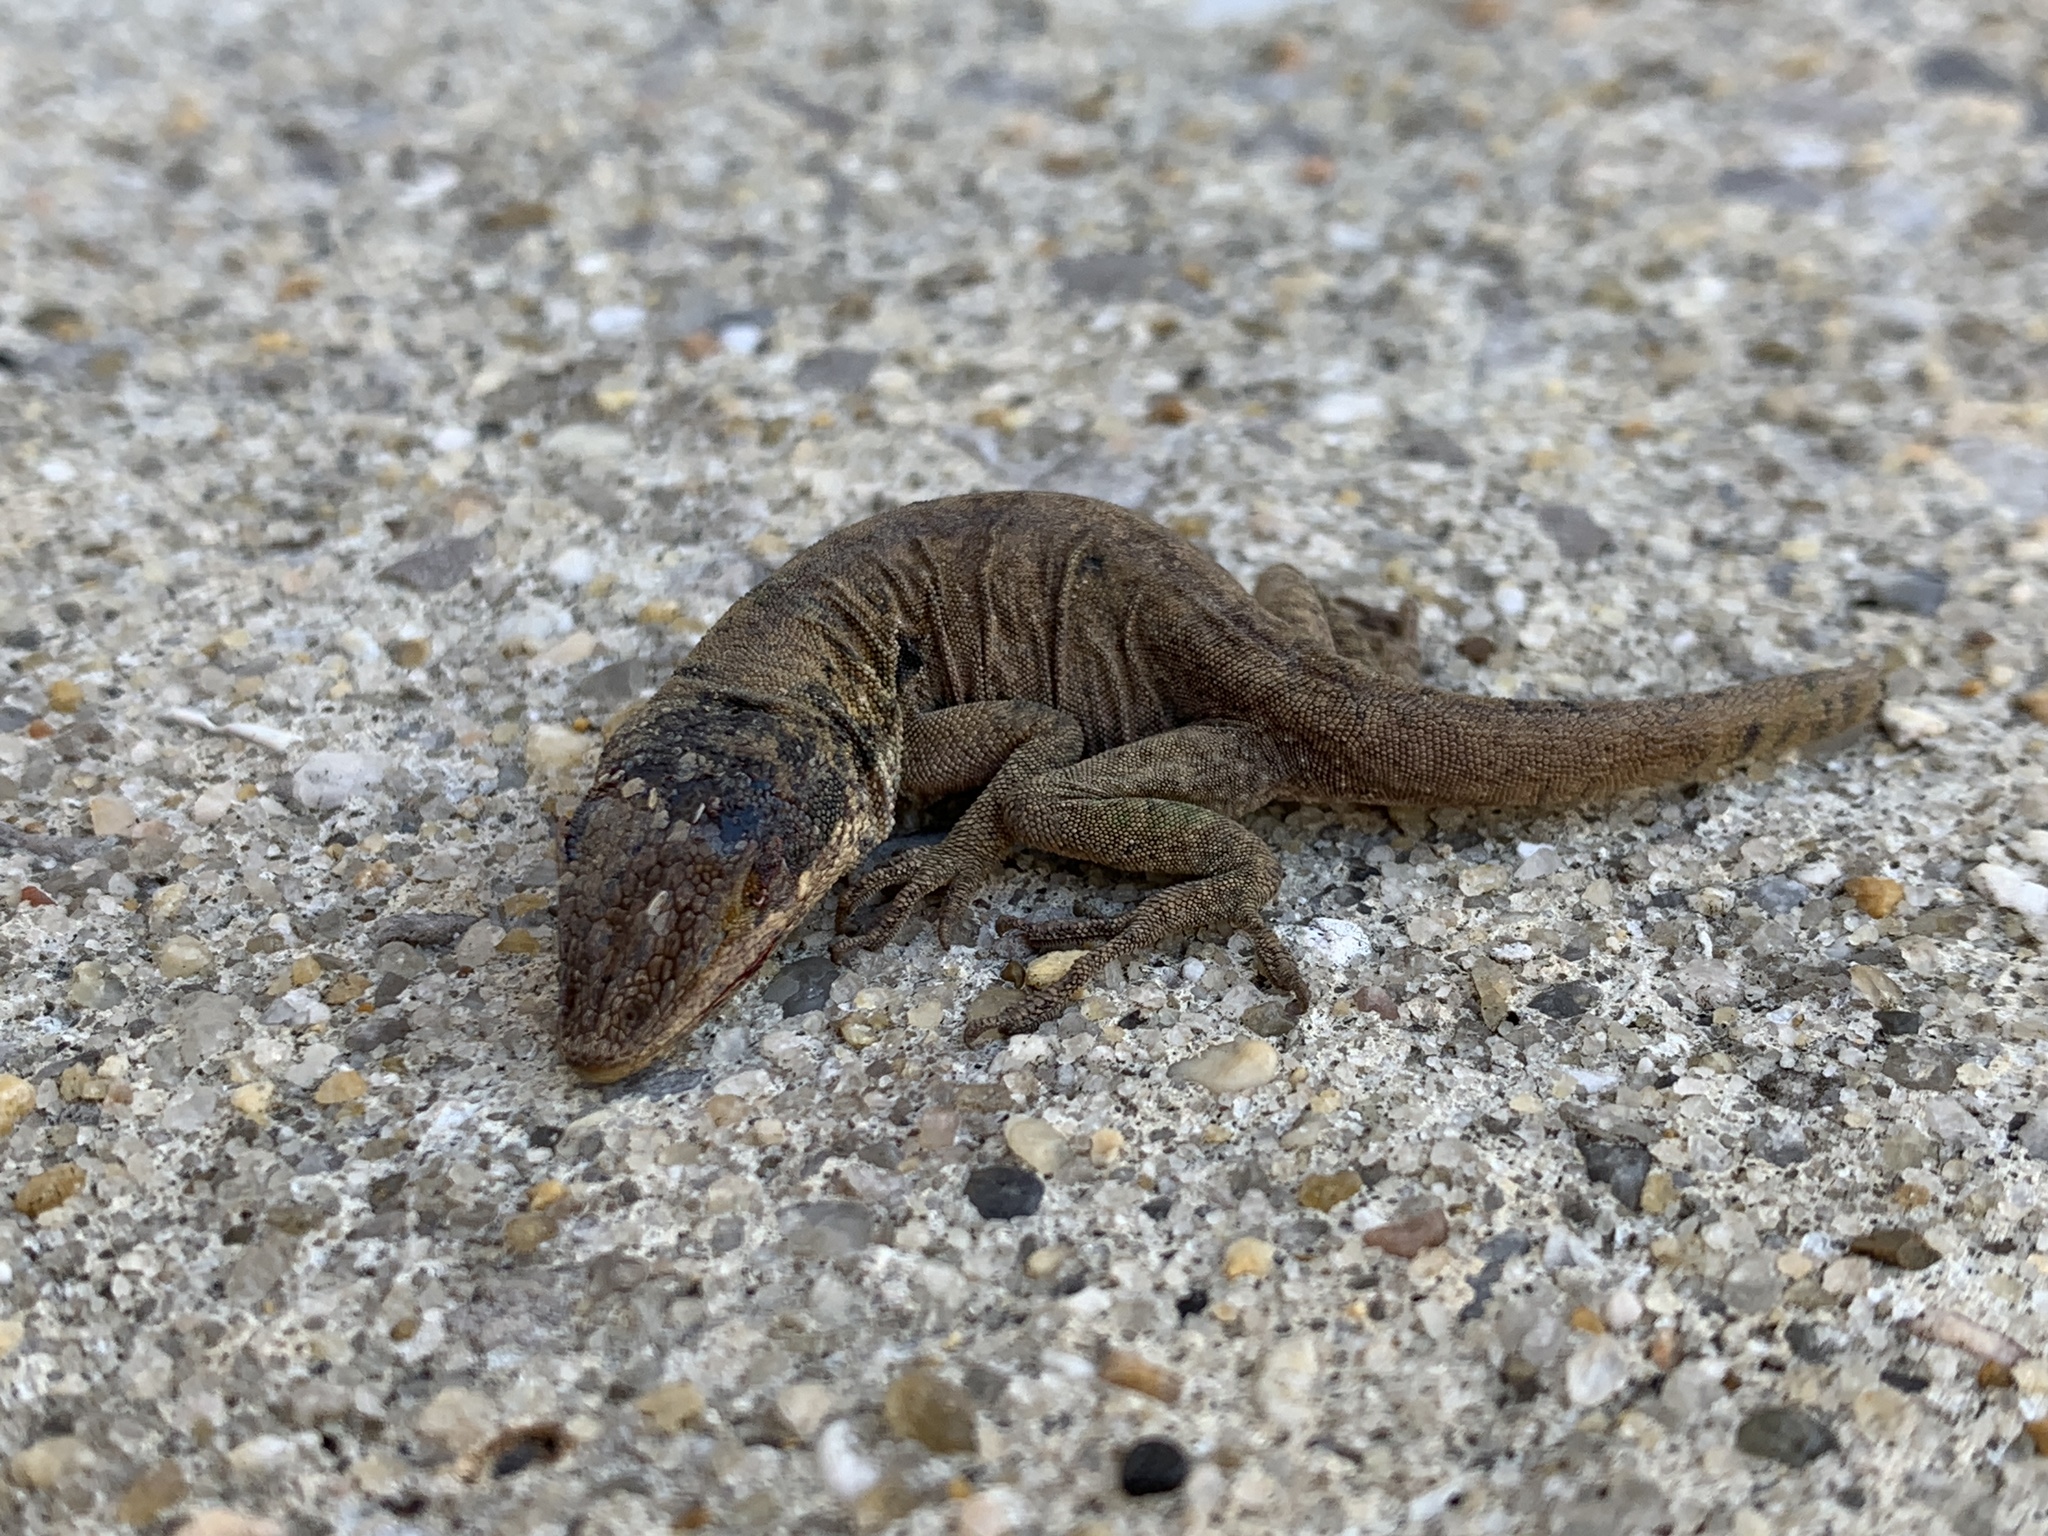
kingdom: Animalia
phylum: Chordata
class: Squamata
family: Dactyloidae
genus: Anolis
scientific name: Anolis carolinensis
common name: Green anole
